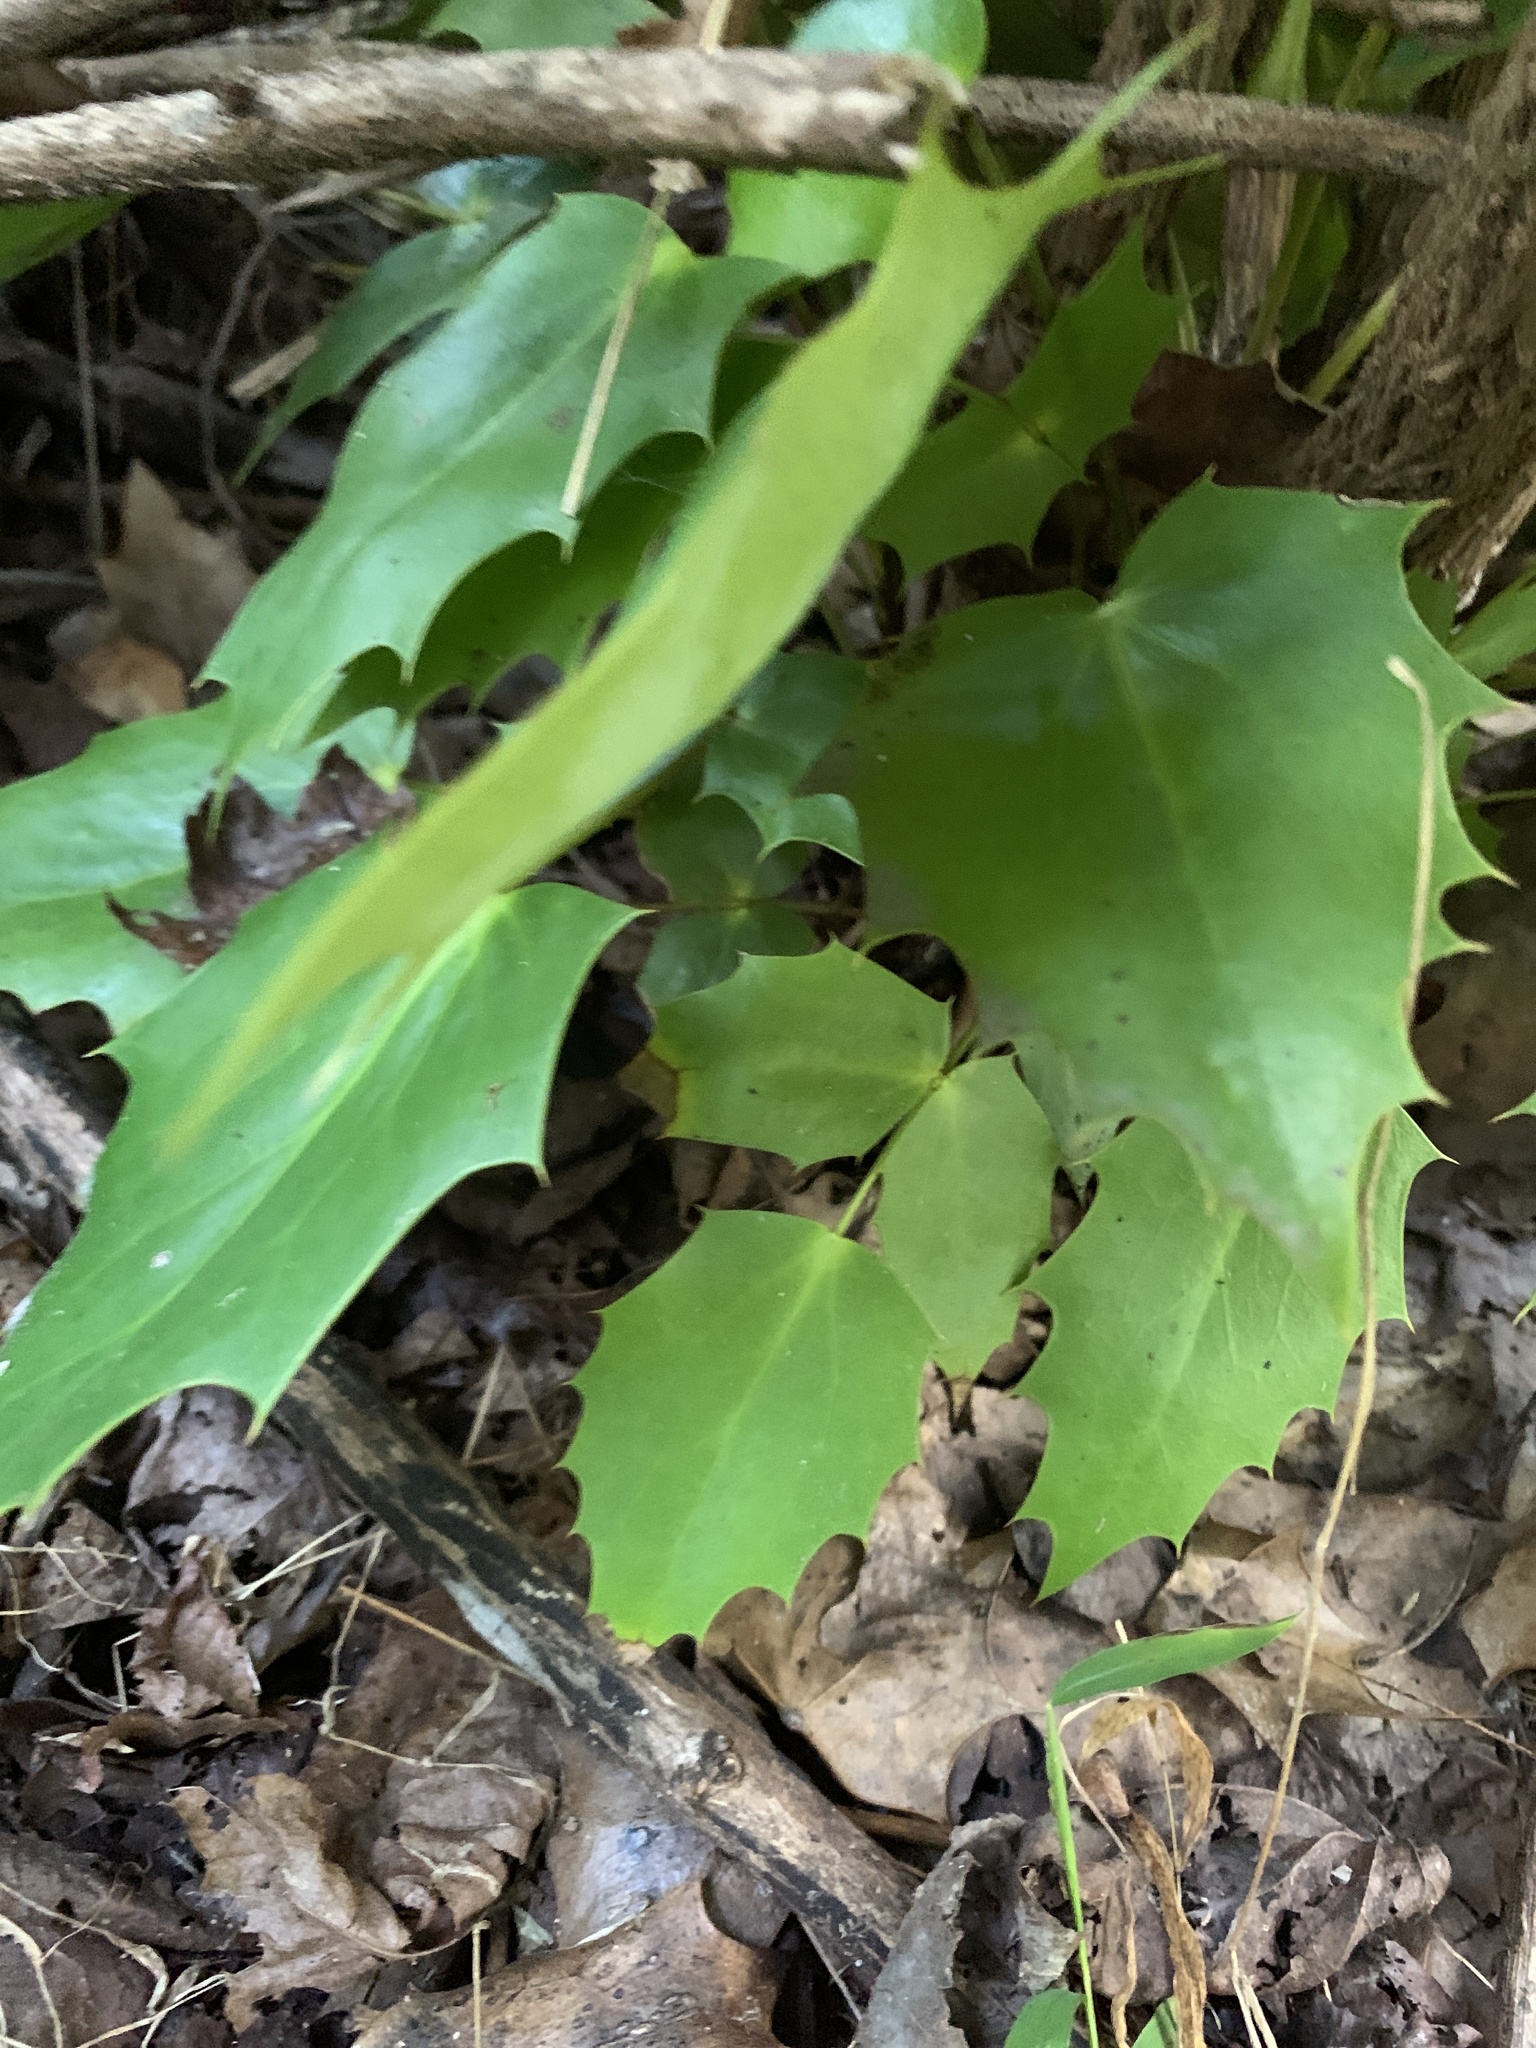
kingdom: Plantae
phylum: Tracheophyta
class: Magnoliopsida
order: Ranunculales
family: Berberidaceae
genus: Mahonia
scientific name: Mahonia bealei
